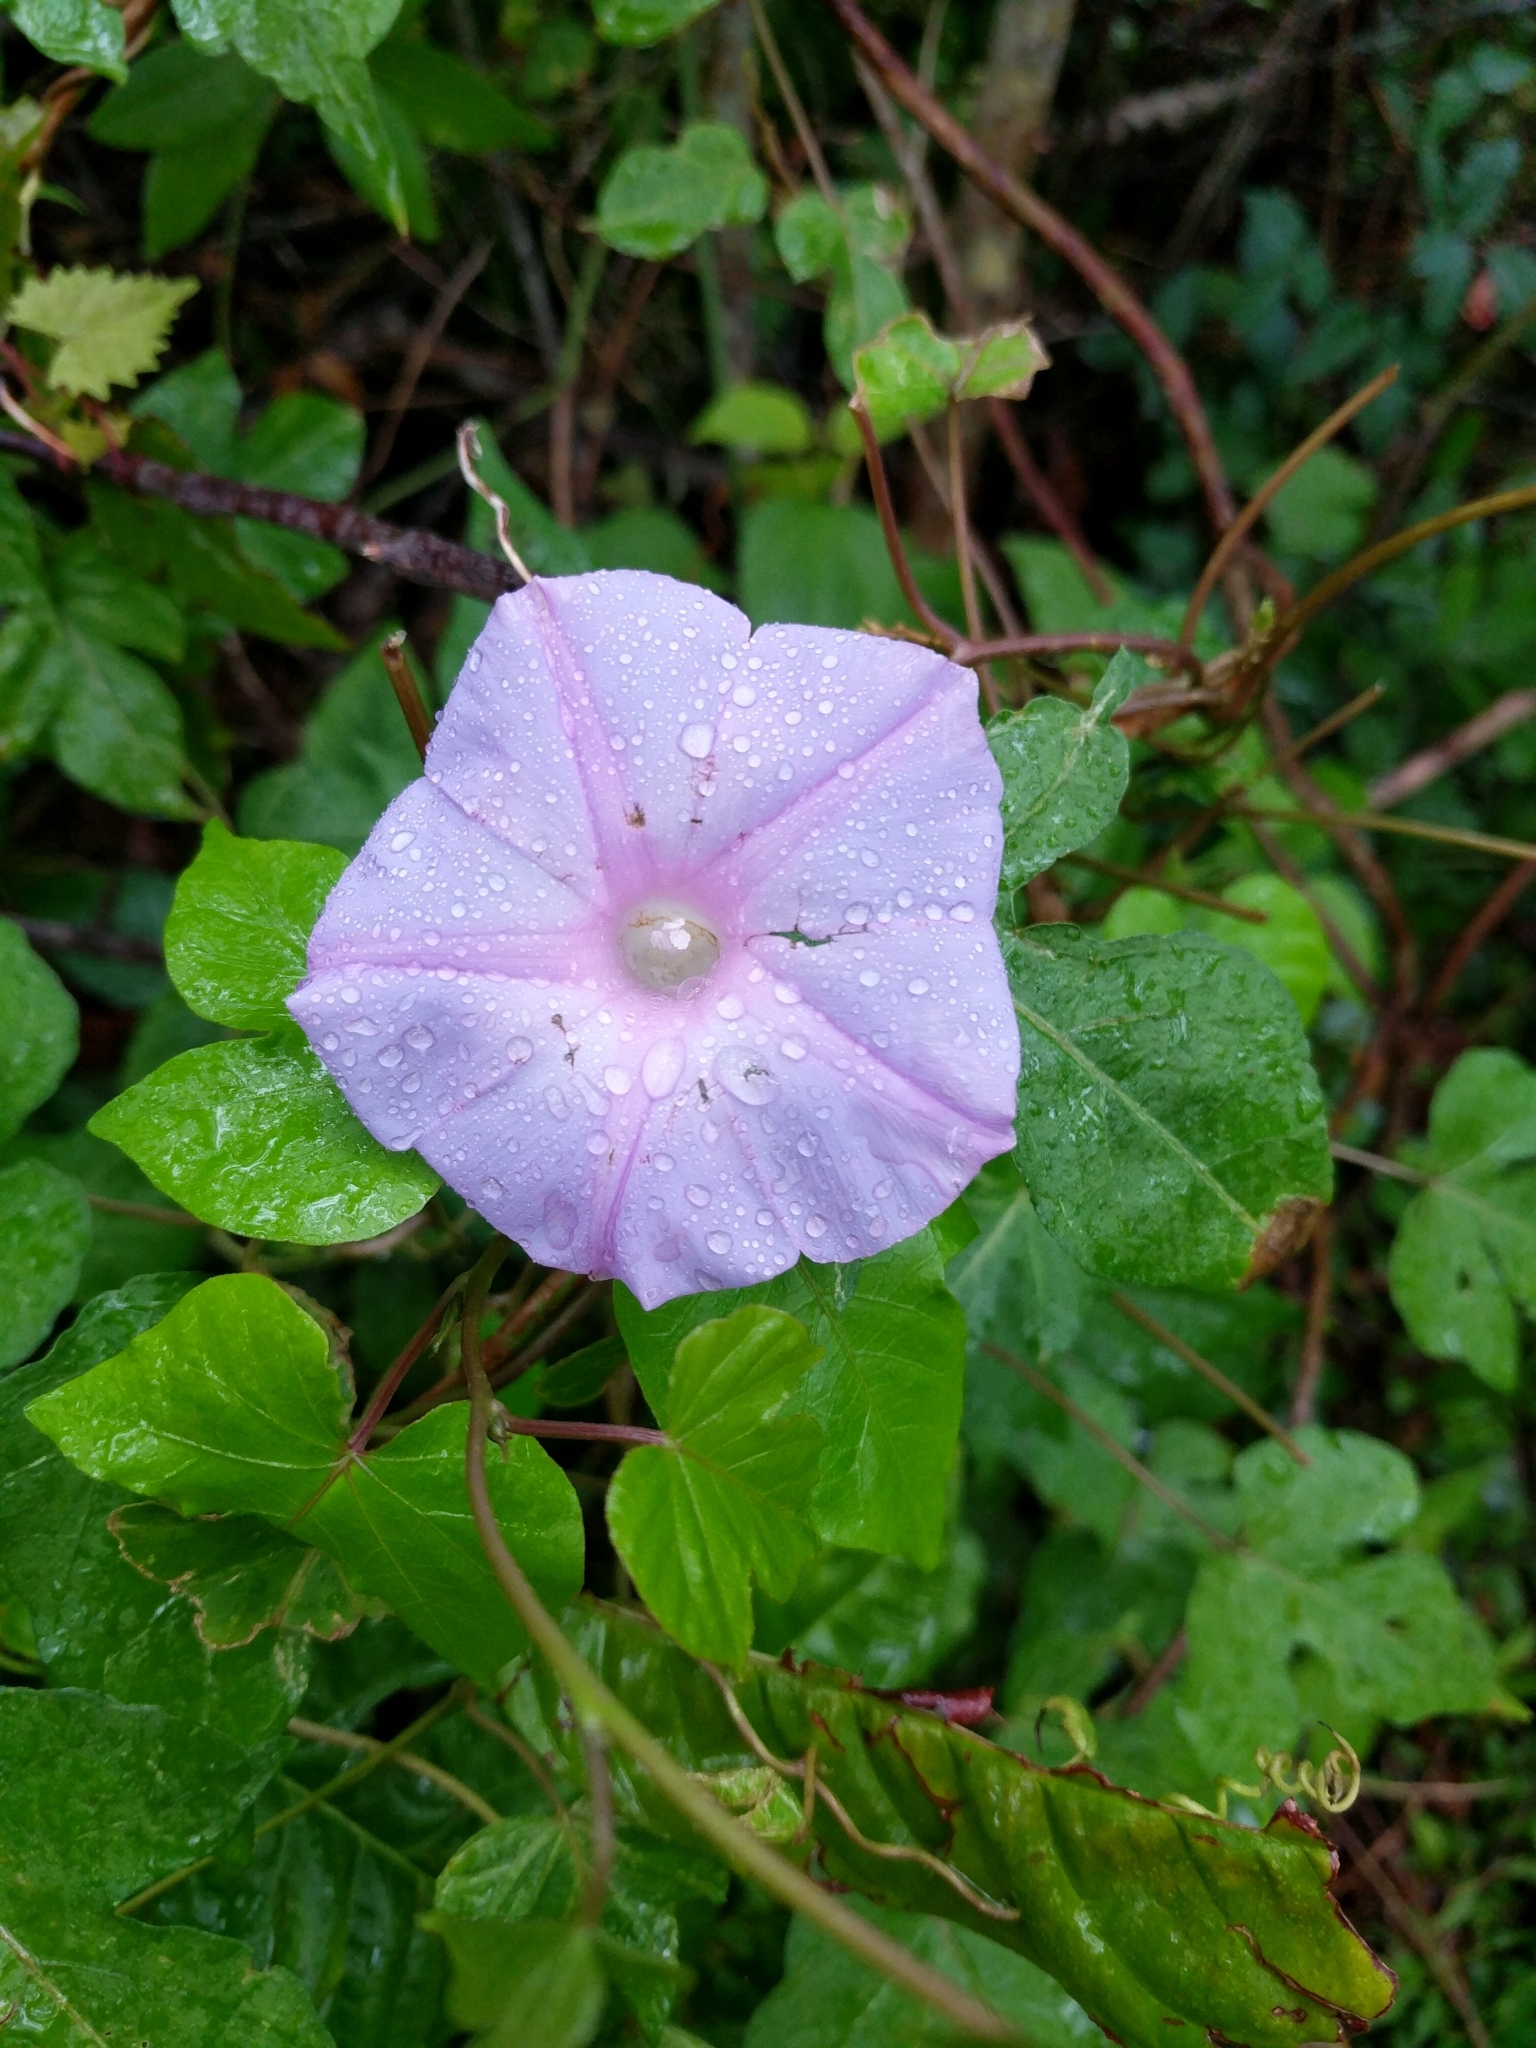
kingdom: Plantae
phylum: Tracheophyta
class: Magnoliopsida
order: Solanales
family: Convolvulaceae
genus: Ipomoea
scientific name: Ipomoea indica
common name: Blue dawnflower
